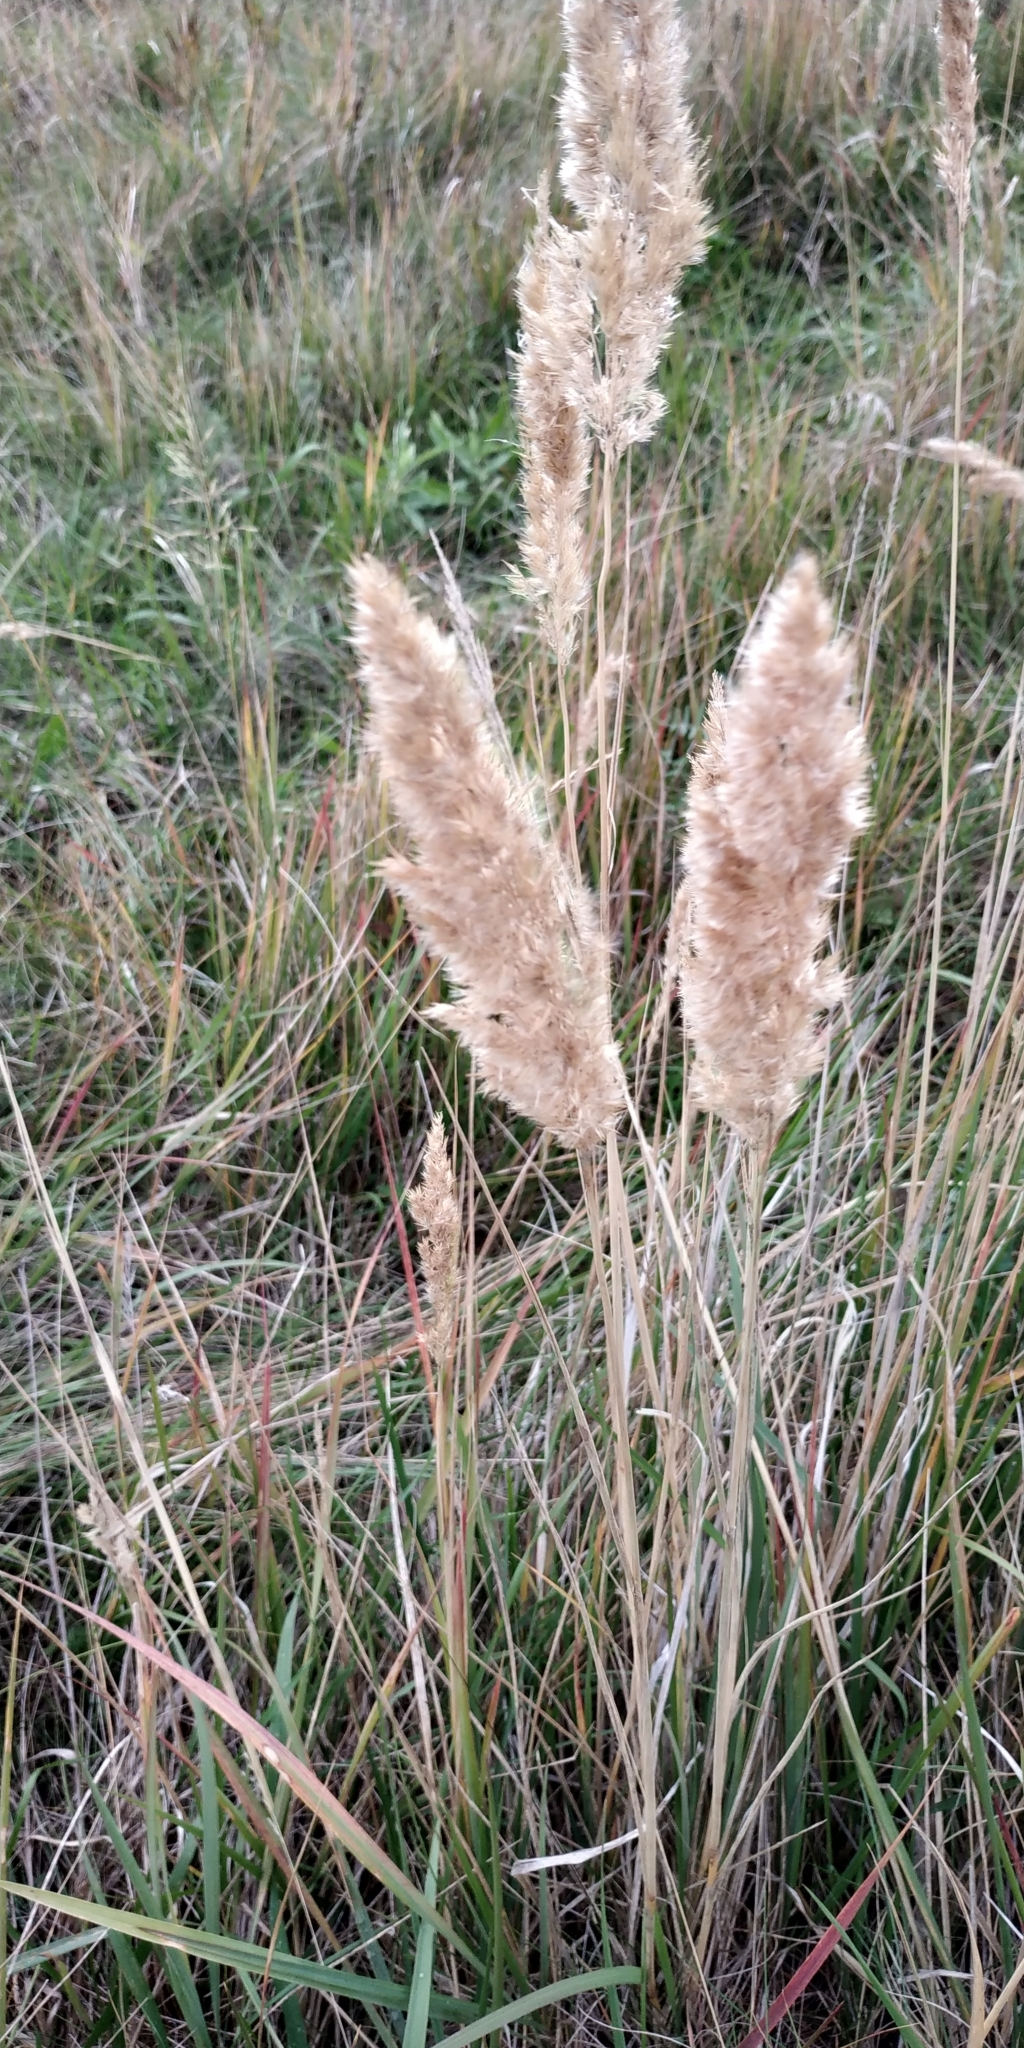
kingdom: Plantae
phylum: Tracheophyta
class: Liliopsida
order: Poales
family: Poaceae
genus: Calamagrostis
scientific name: Calamagrostis epigejos
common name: Wood small-reed
